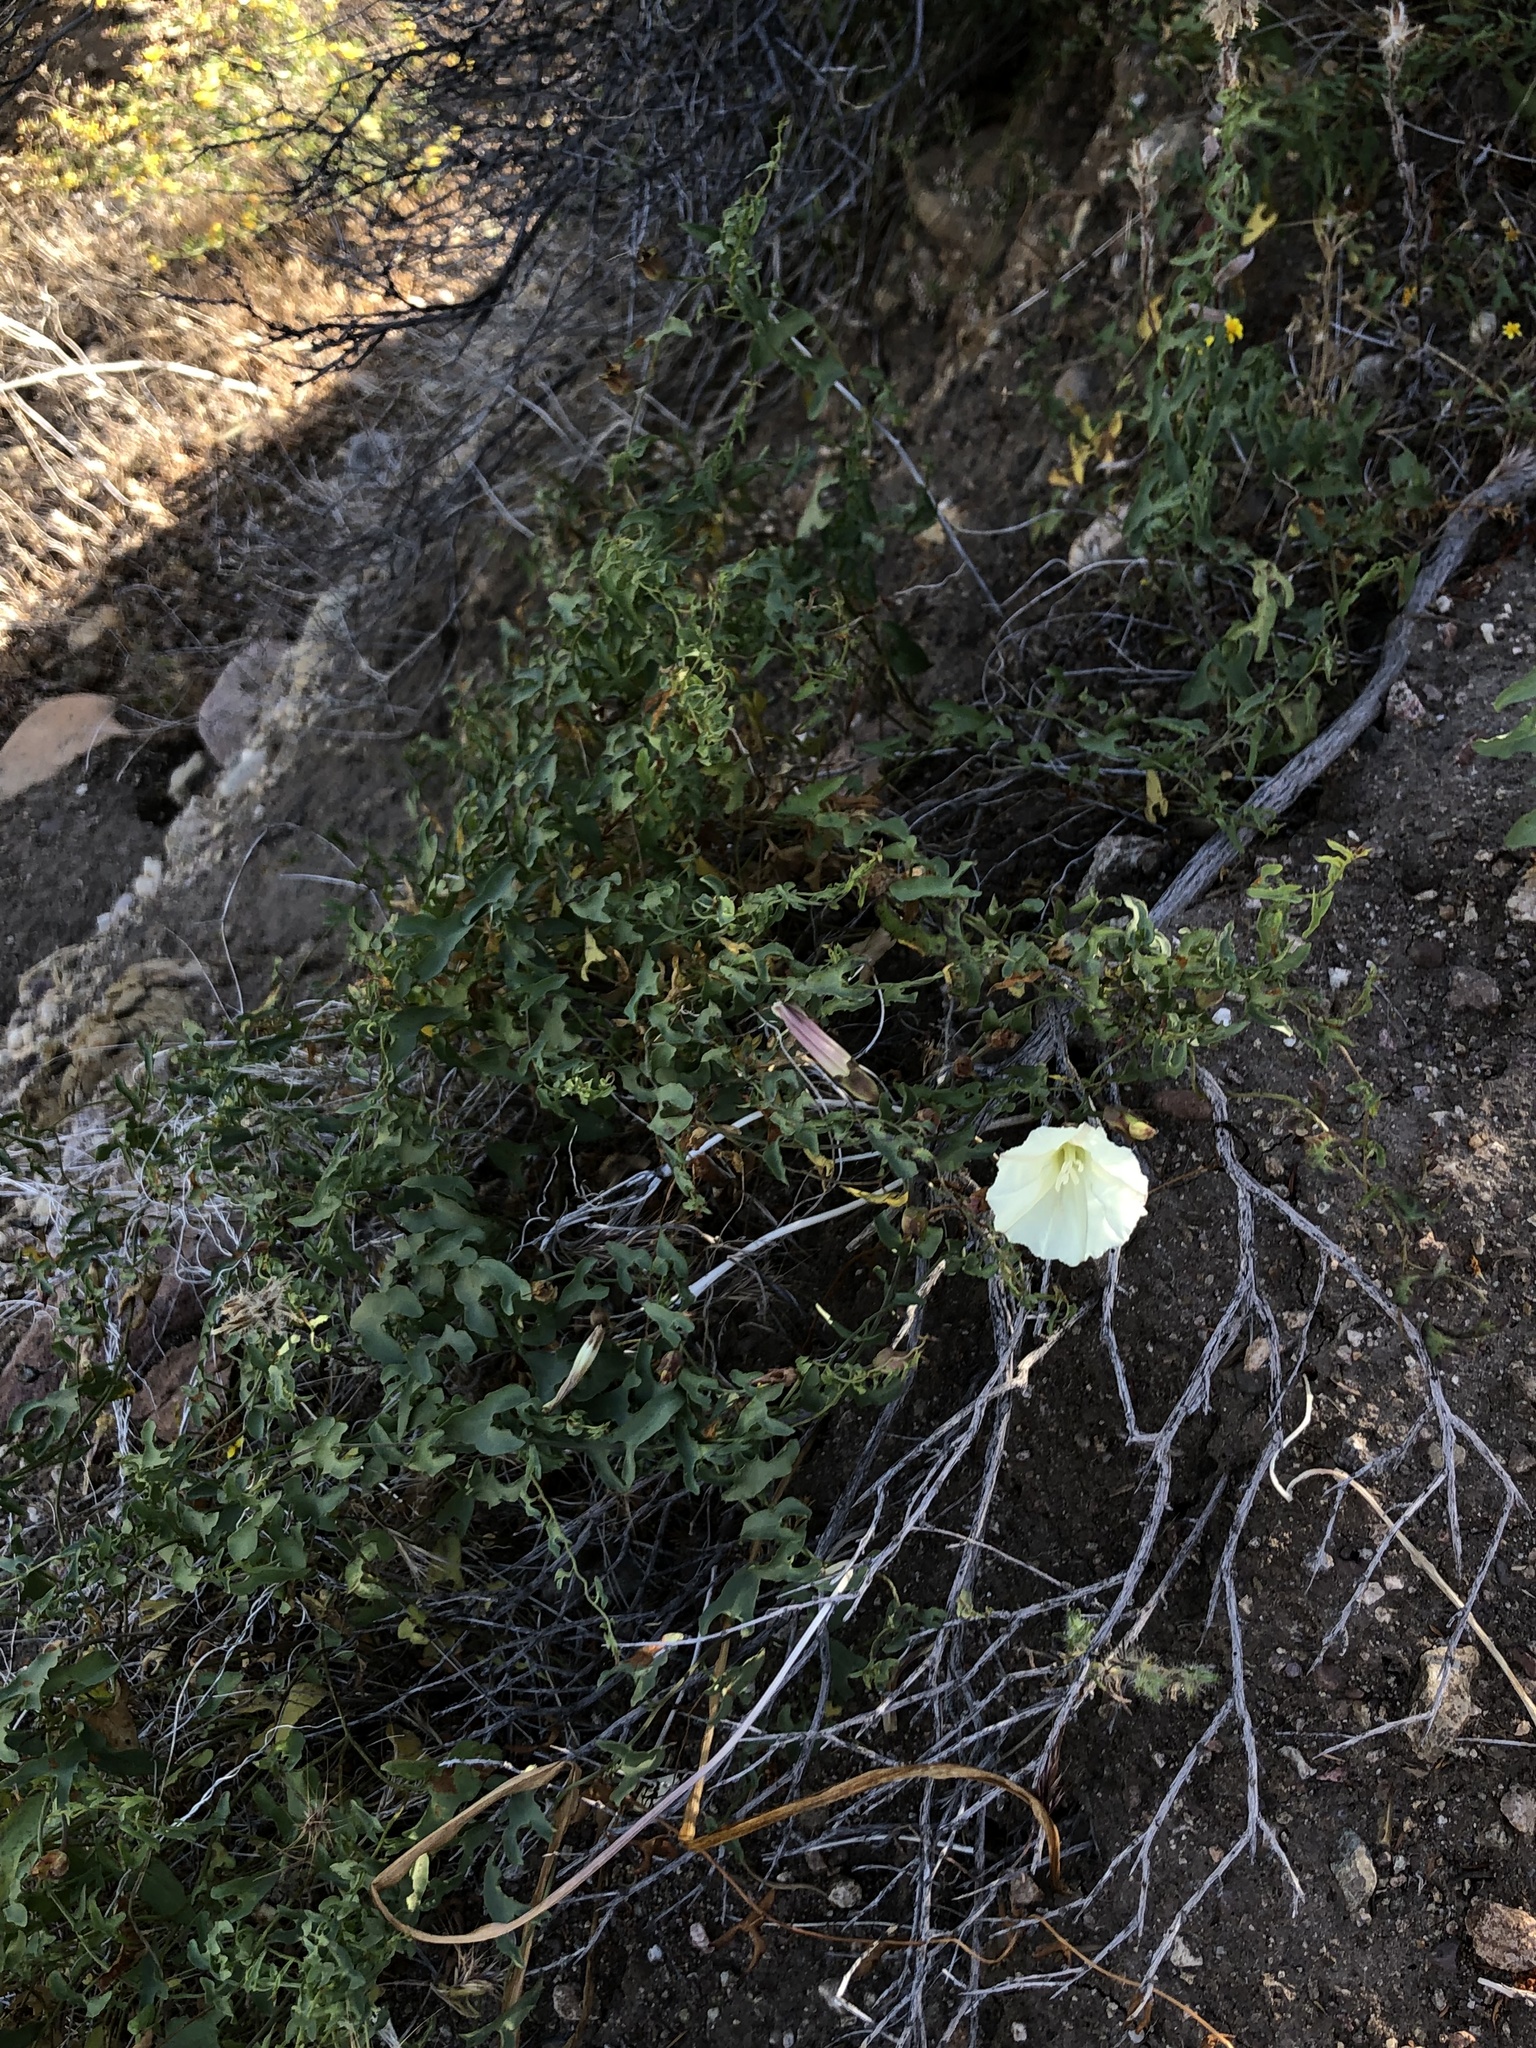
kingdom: Plantae
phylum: Tracheophyta
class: Magnoliopsida
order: Solanales
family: Convolvulaceae
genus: Calystegia
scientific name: Calystegia macrostegia
